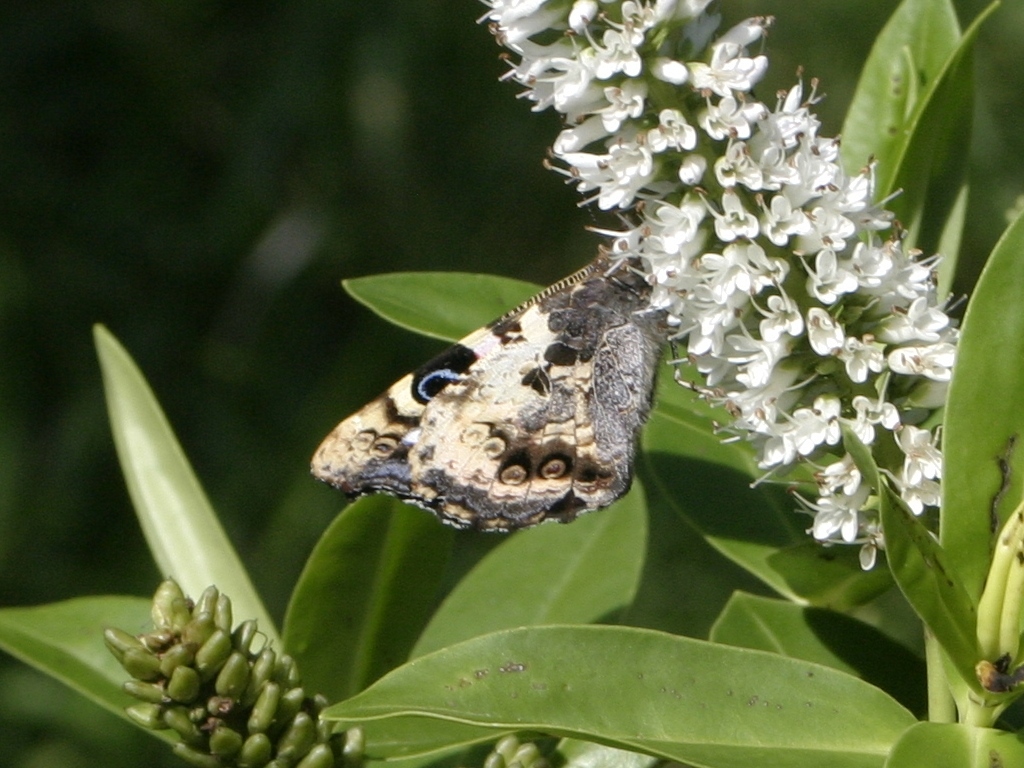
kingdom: Animalia
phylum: Arthropoda
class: Insecta
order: Lepidoptera
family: Nymphalidae
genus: Vanessa
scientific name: Vanessa gonerilla
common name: New zealand red admiral
